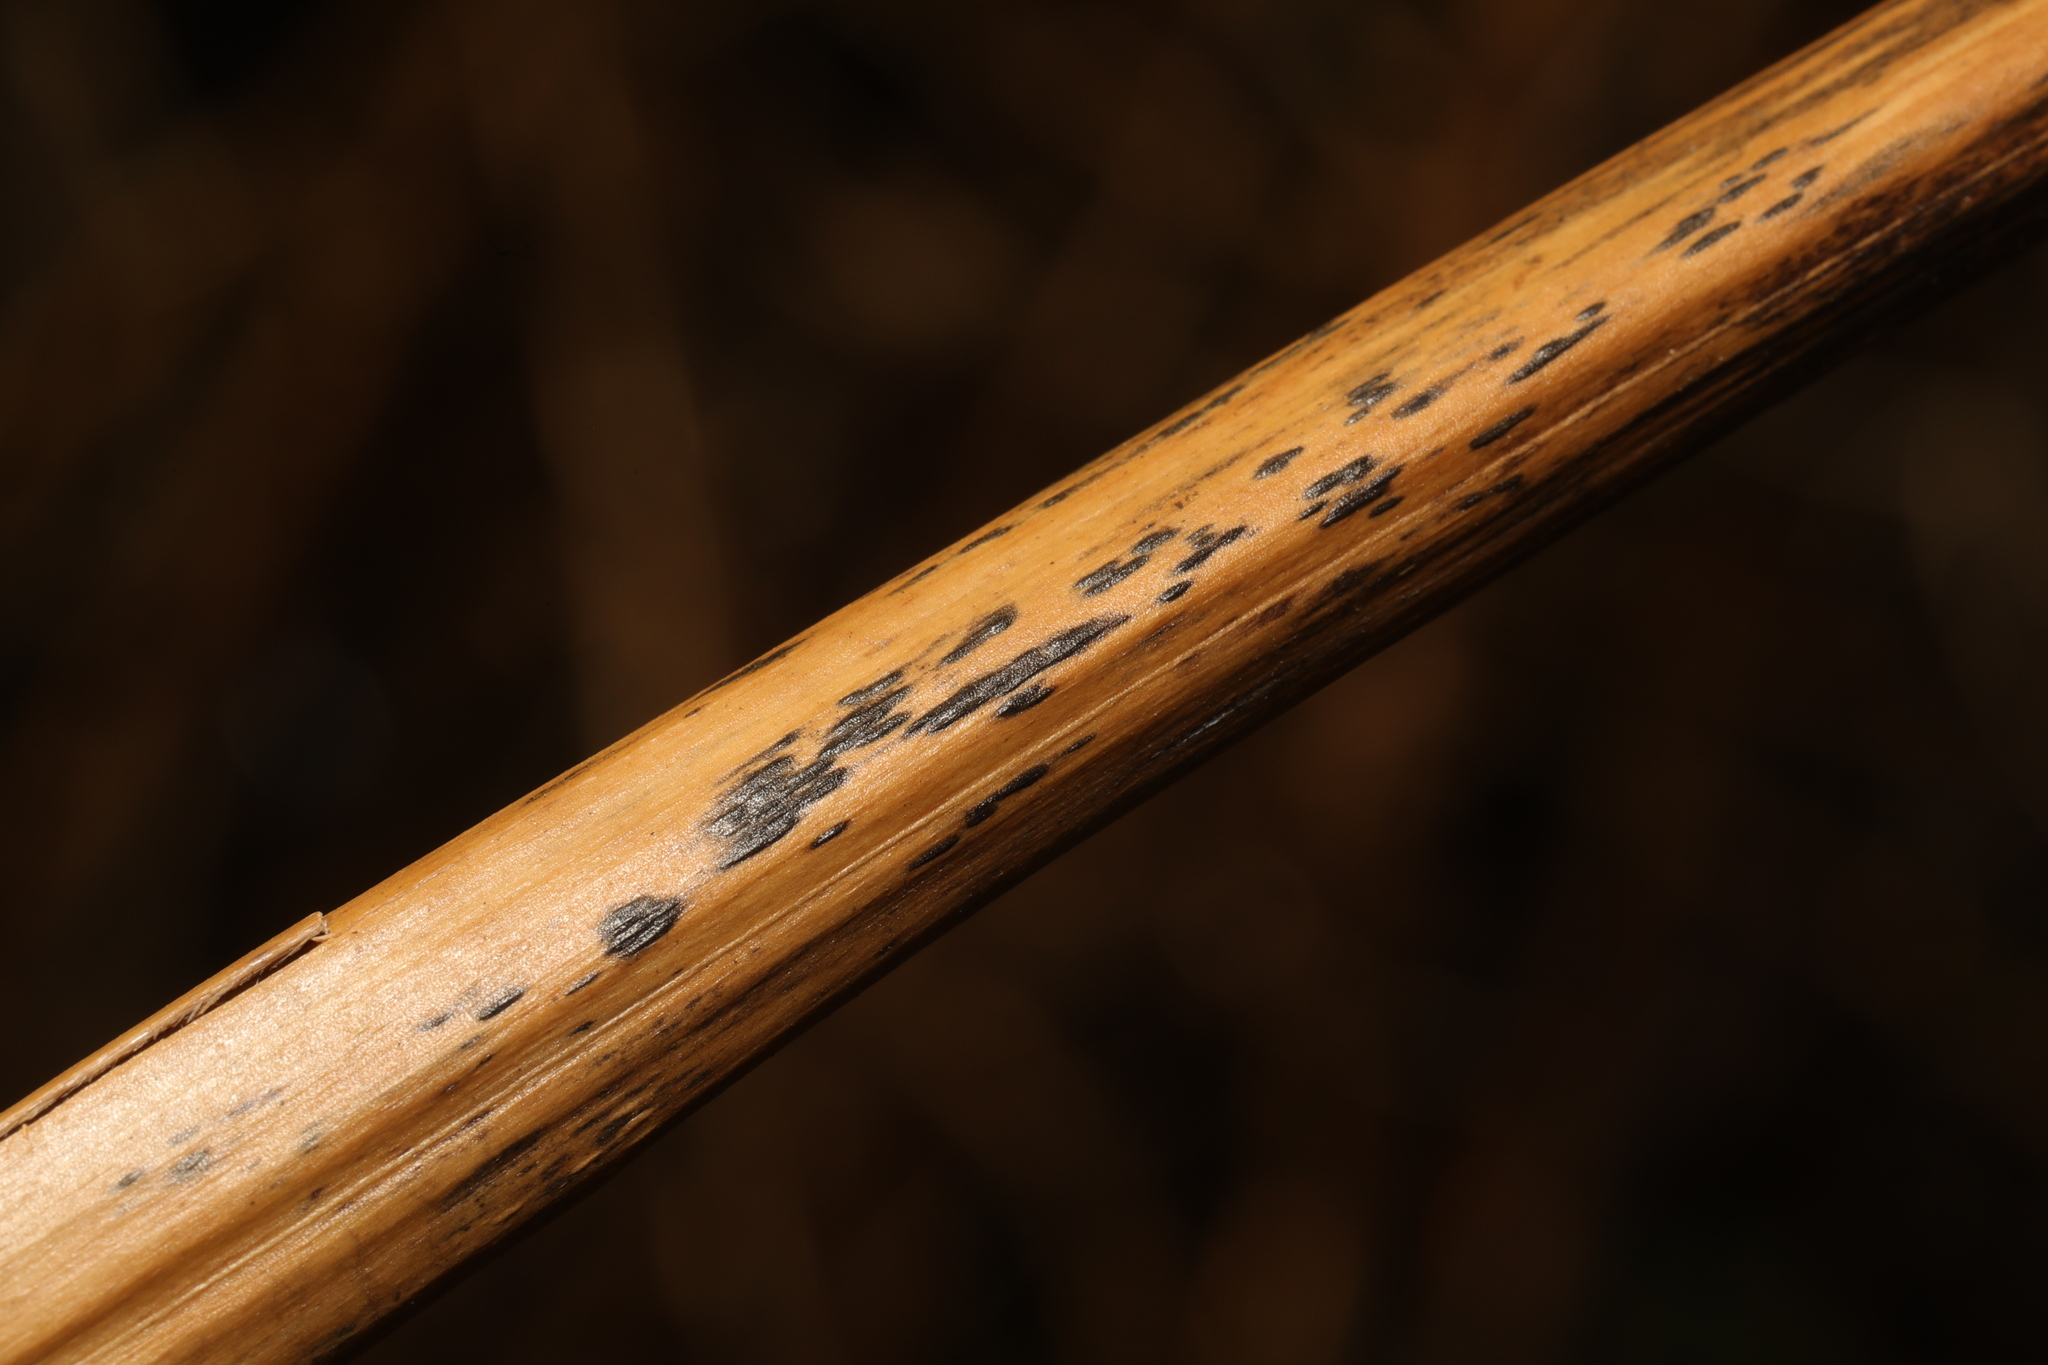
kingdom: Fungi
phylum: Ascomycota
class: Dothideomycetes
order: Pleosporales
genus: Rhopographus
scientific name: Rhopographus filicinus
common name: Bracken map
